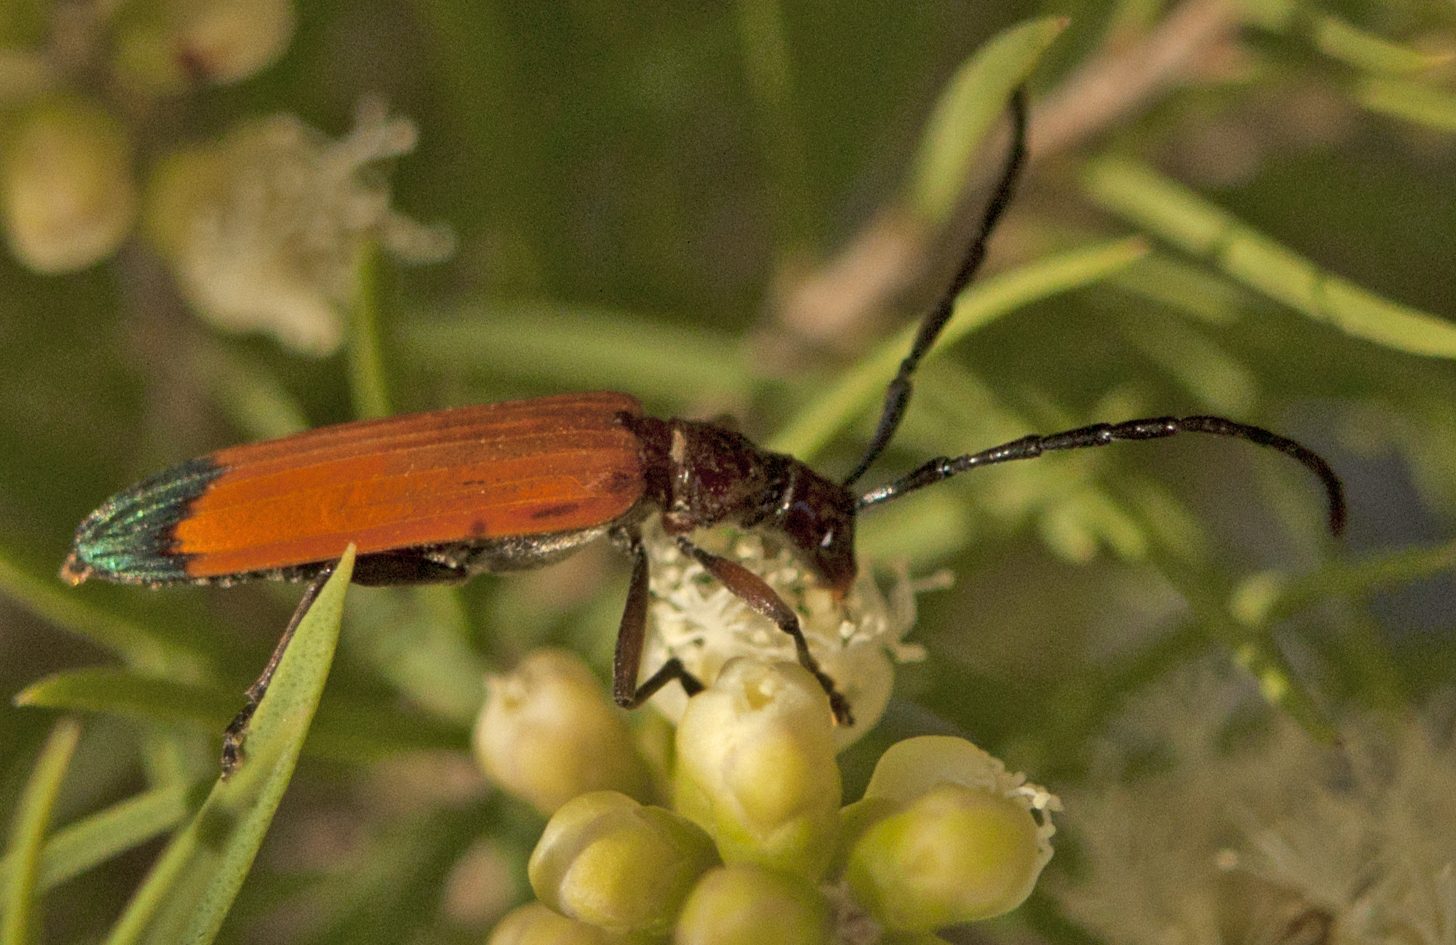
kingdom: Animalia
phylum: Arthropoda
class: Insecta
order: Coleoptera
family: Cerambycidae
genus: Stenoderus
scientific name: Stenoderus ostricilla
